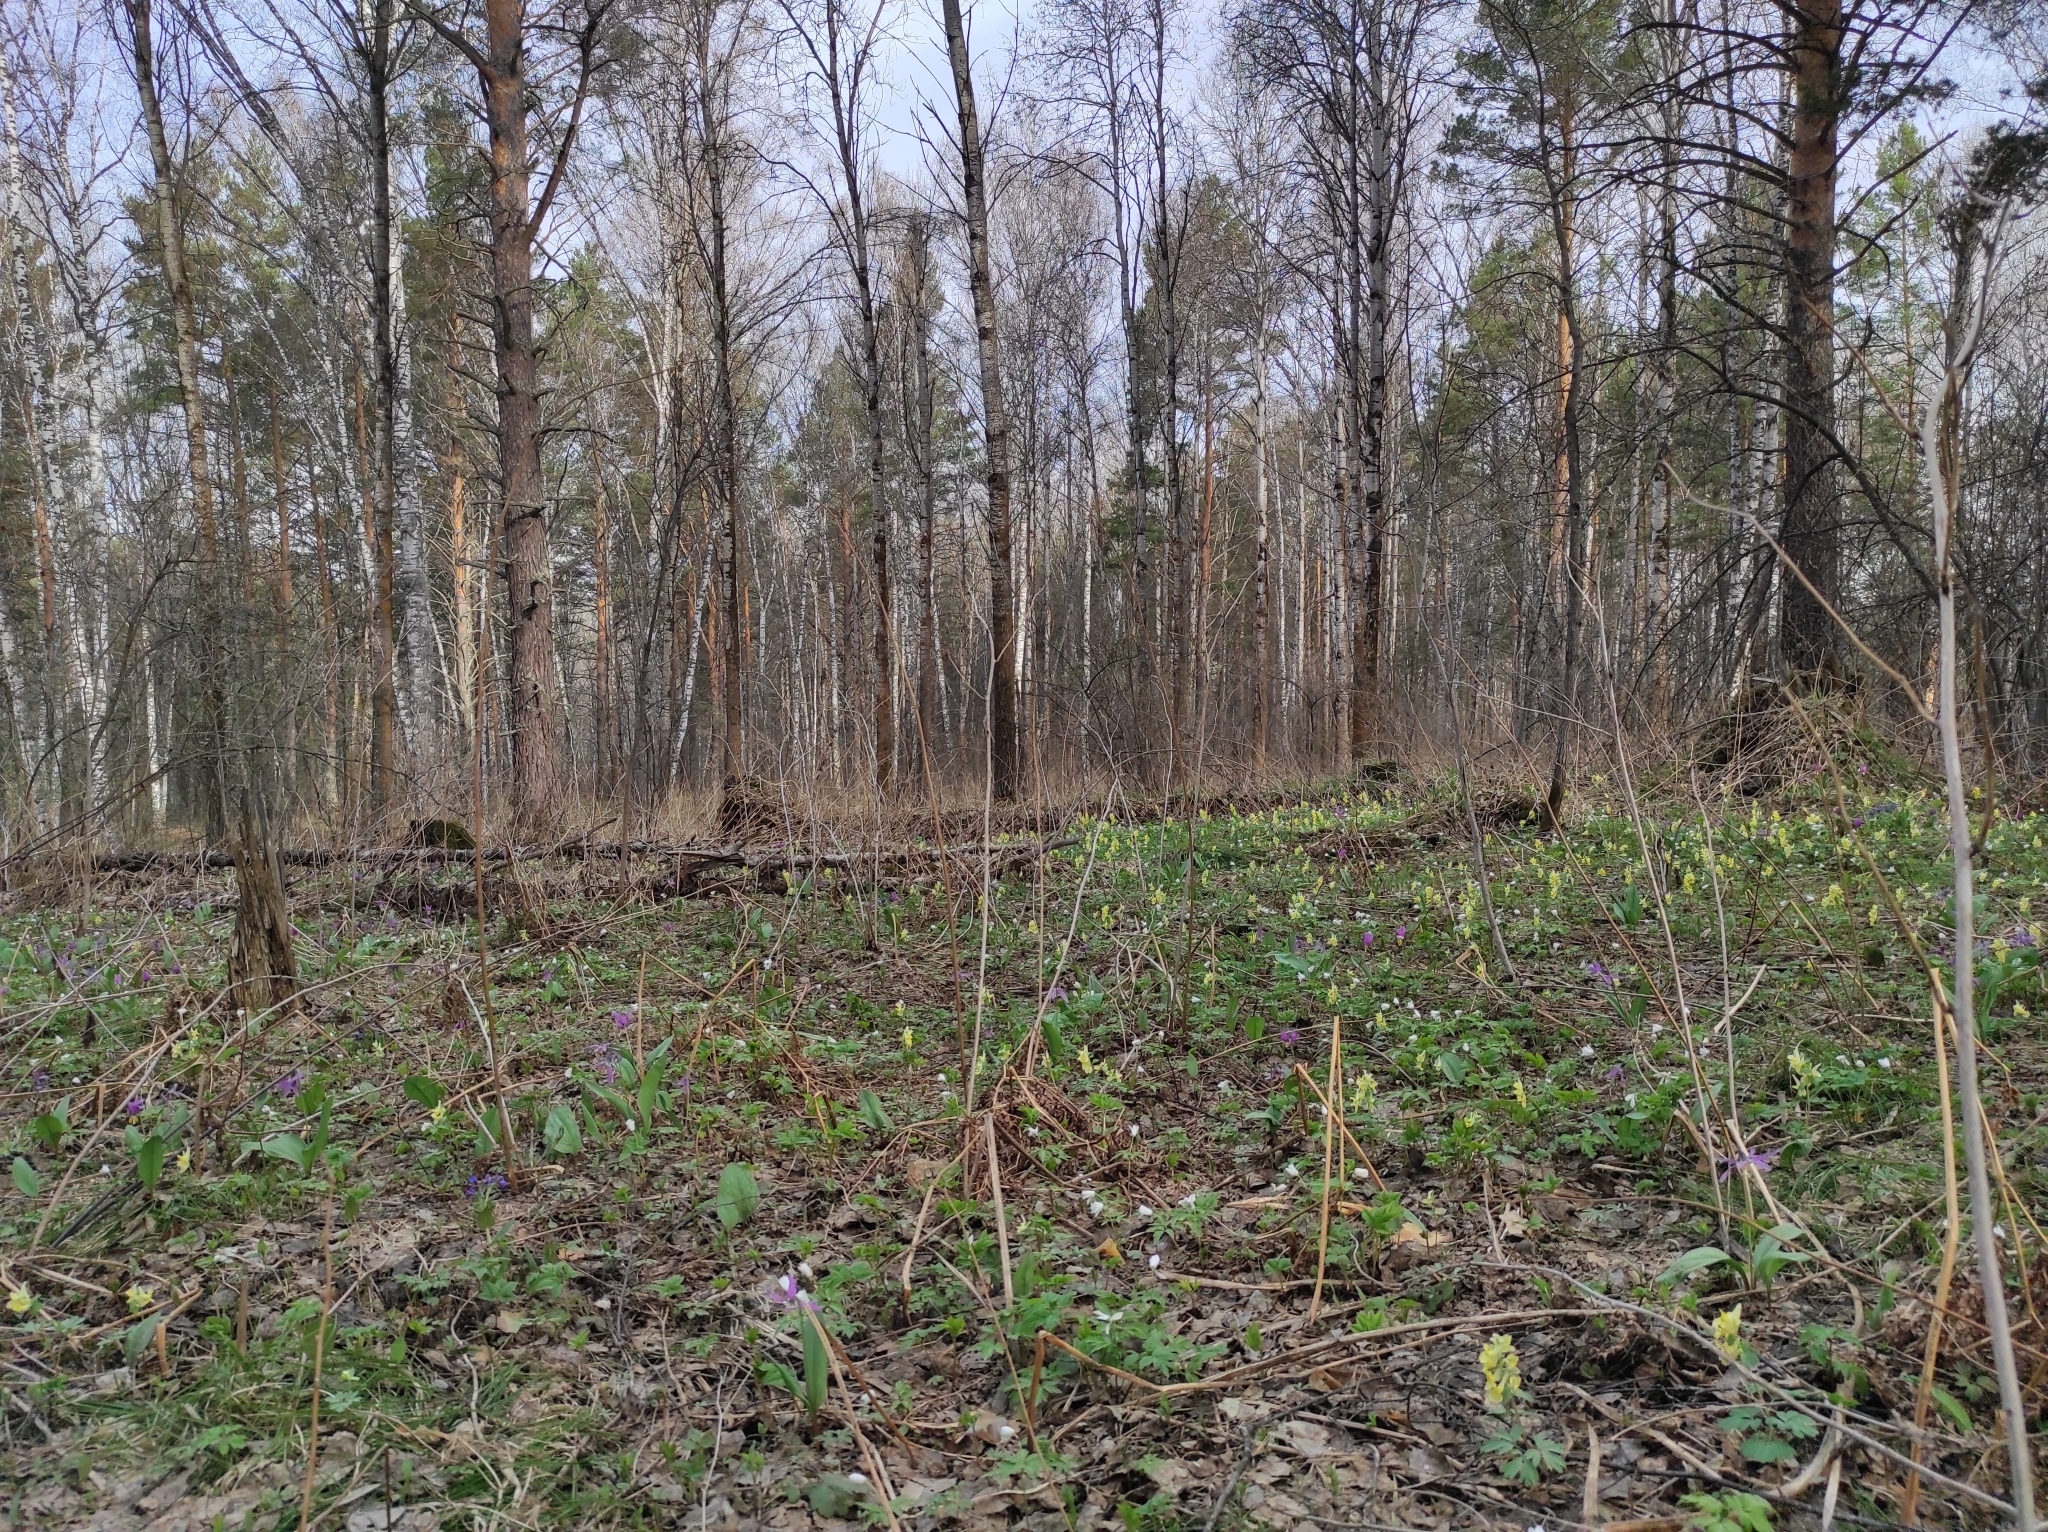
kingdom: Plantae
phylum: Tracheophyta
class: Magnoliopsida
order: Ranunculales
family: Papaveraceae
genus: Corydalis
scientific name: Corydalis bracteata
